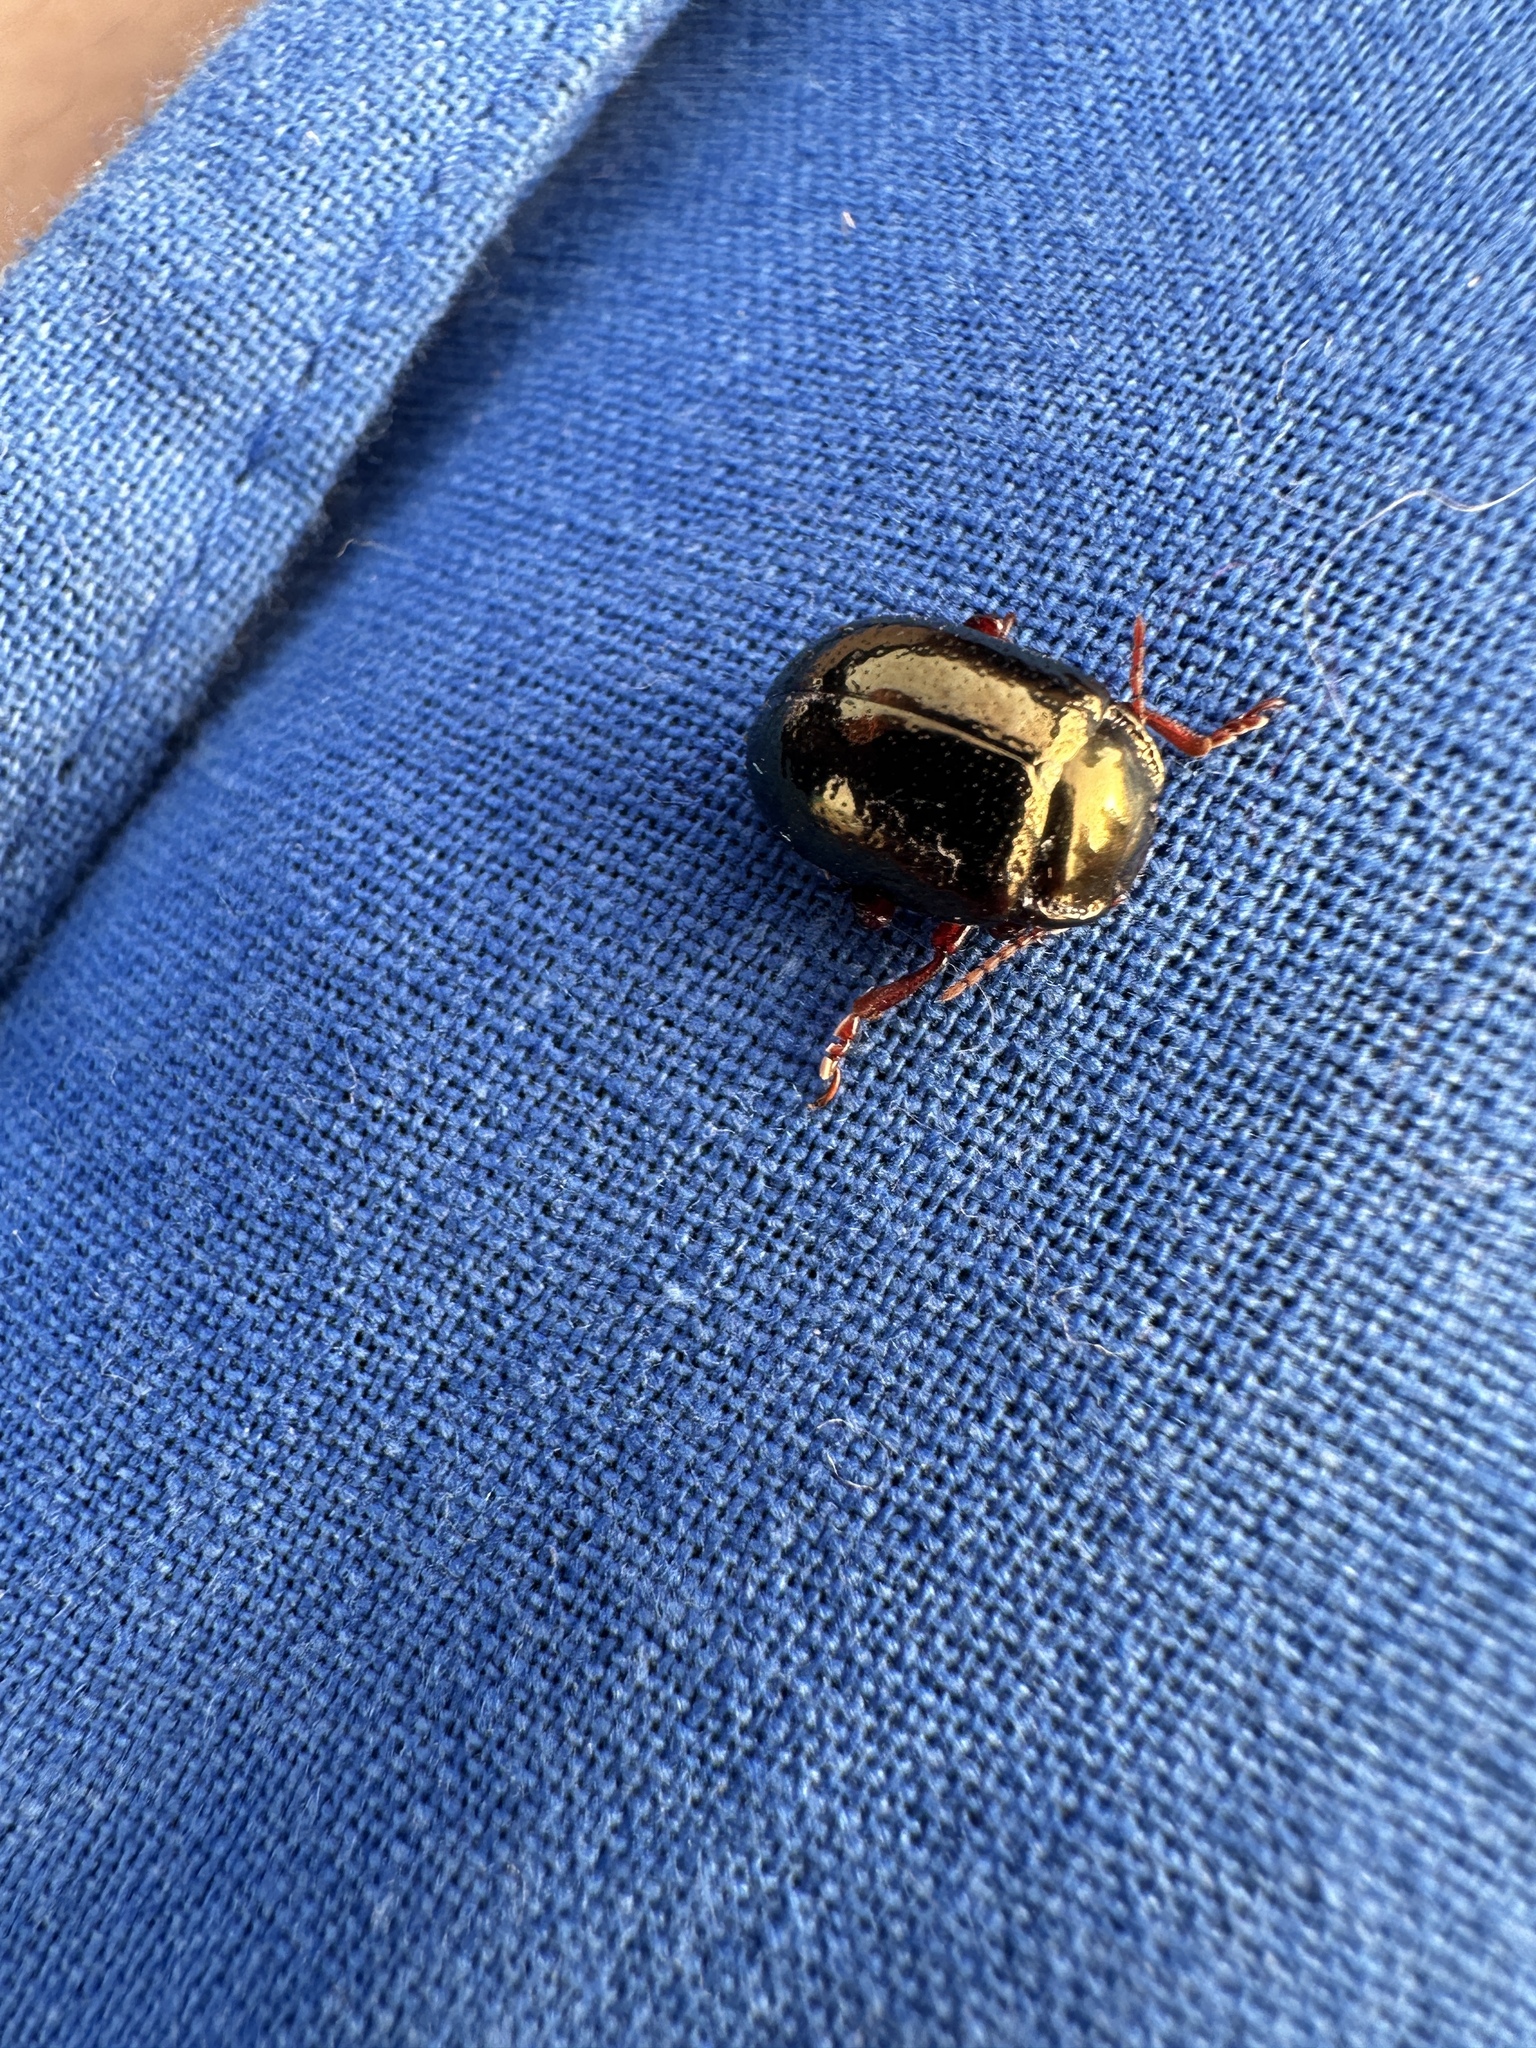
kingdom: Animalia
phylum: Arthropoda
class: Insecta
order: Coleoptera
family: Chrysomelidae
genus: Chrysolina
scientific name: Chrysolina bankii
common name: Leaf beetle
